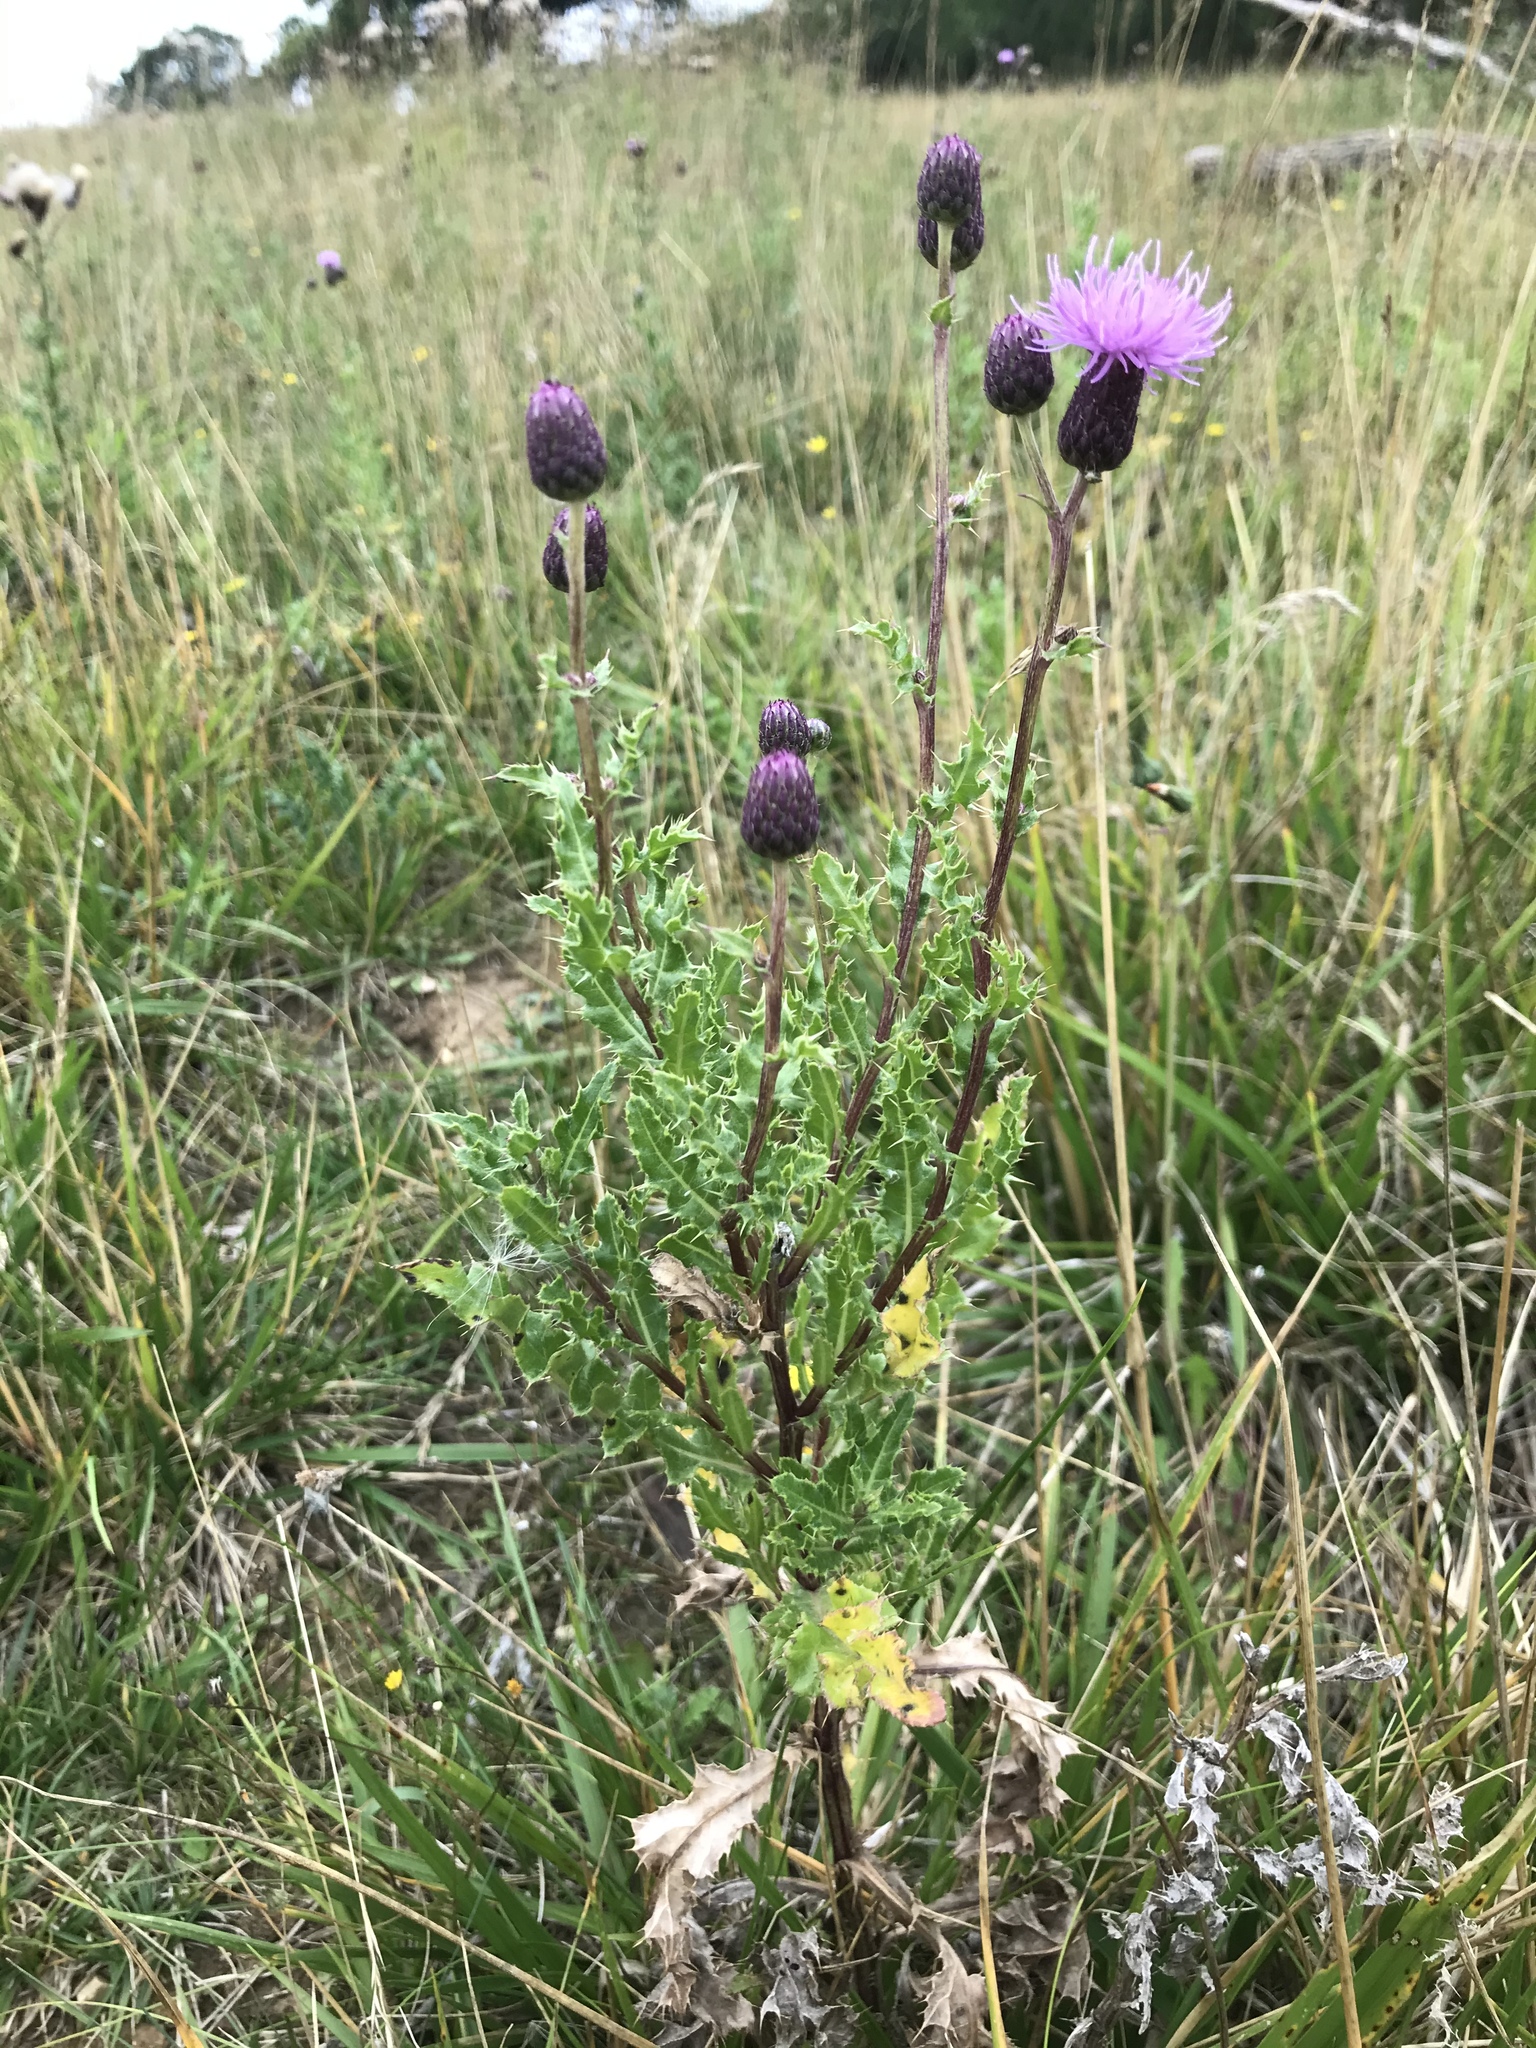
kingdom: Plantae
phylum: Tracheophyta
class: Magnoliopsida
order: Asterales
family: Asteraceae
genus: Cirsium
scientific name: Cirsium arvense
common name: Creeping thistle
